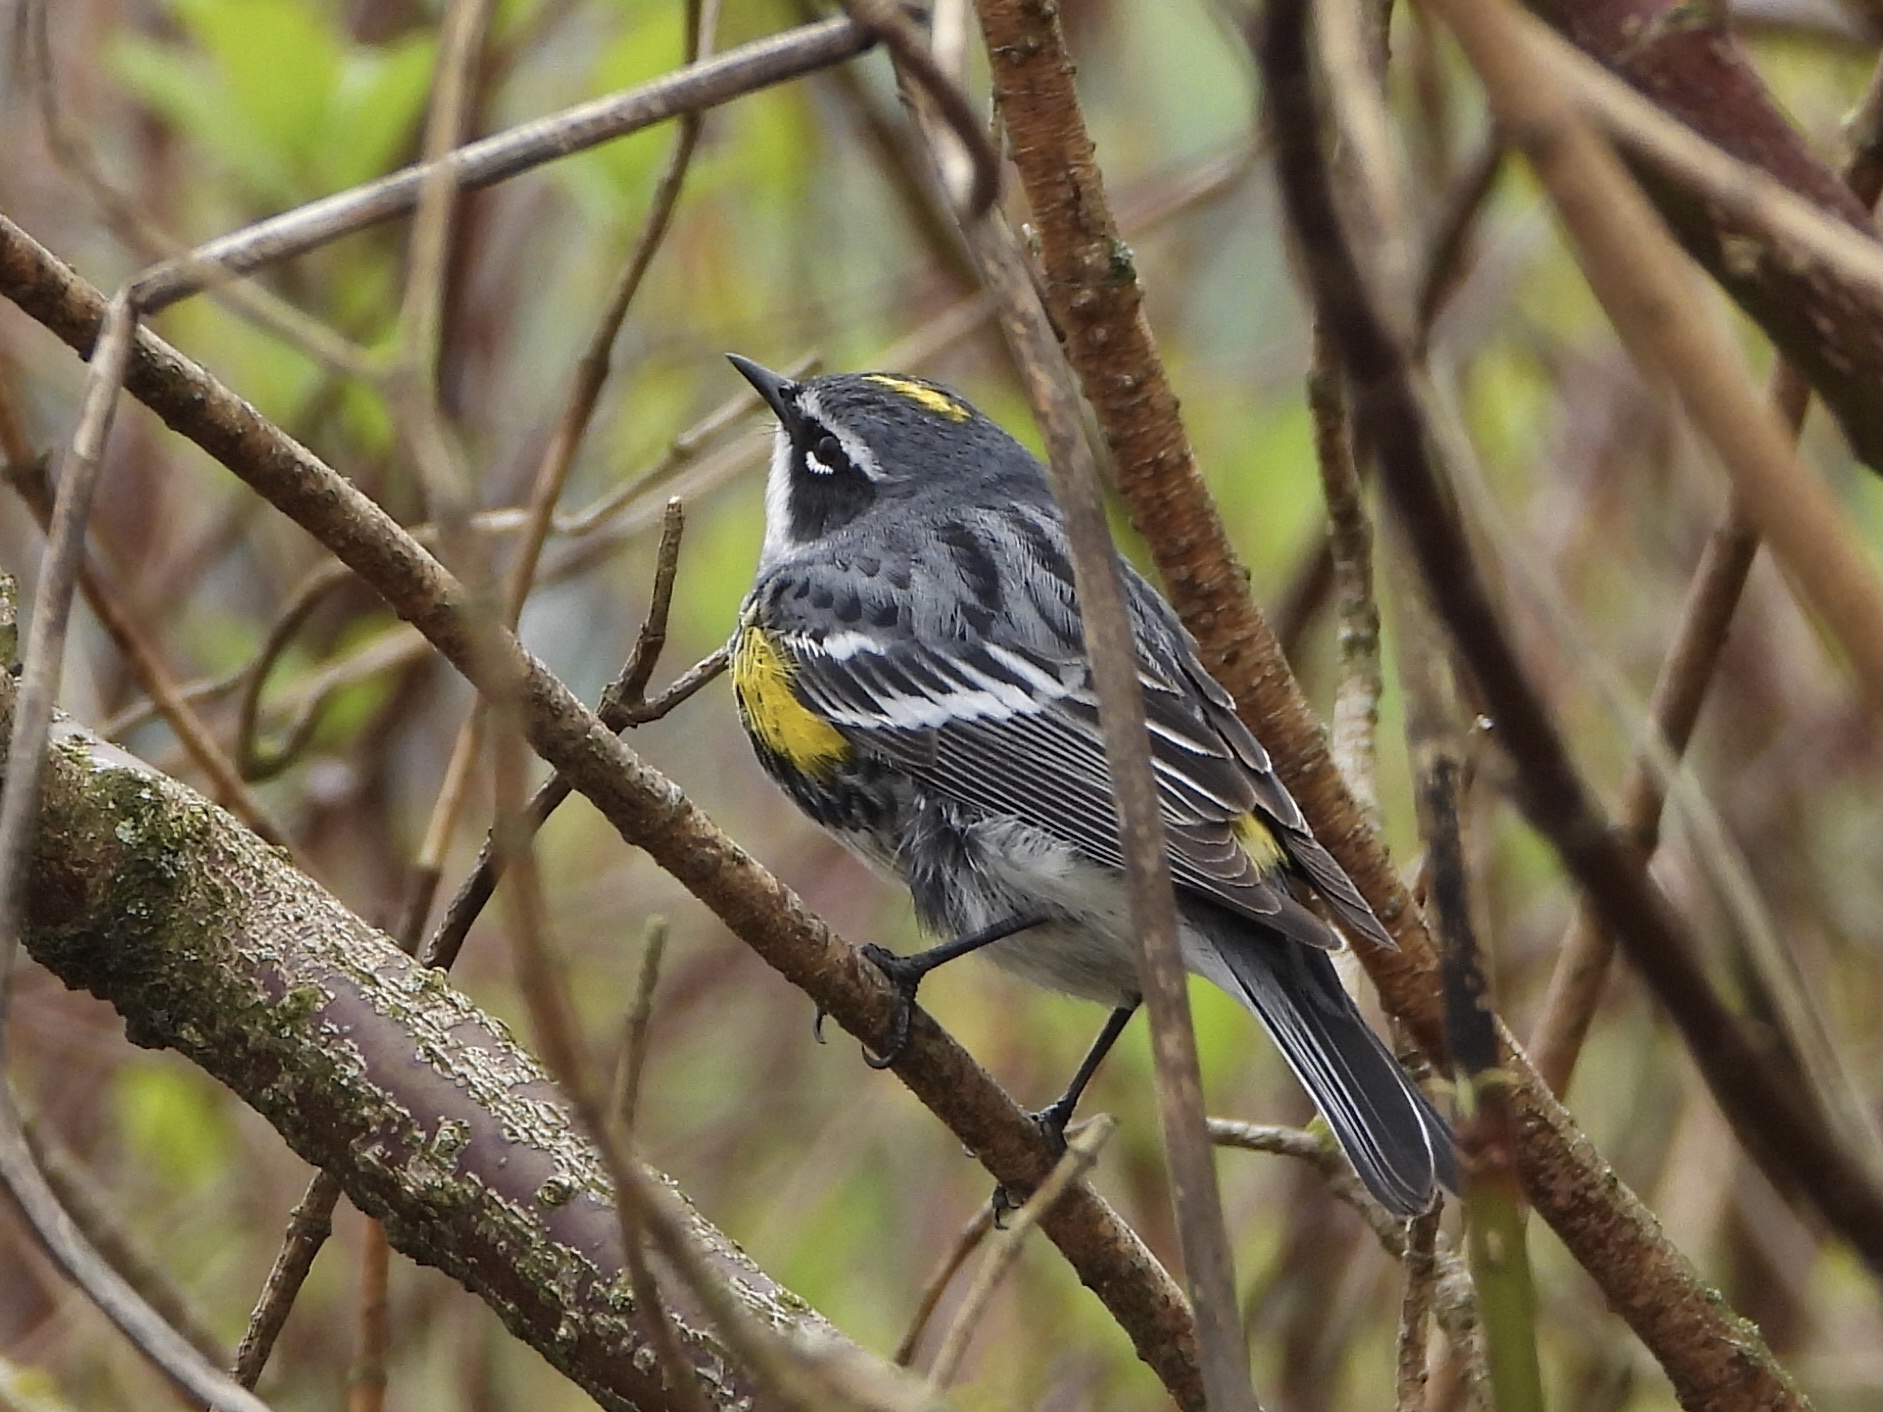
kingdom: Animalia
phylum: Chordata
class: Aves
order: Passeriformes
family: Parulidae
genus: Setophaga
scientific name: Setophaga coronata
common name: Myrtle warbler
